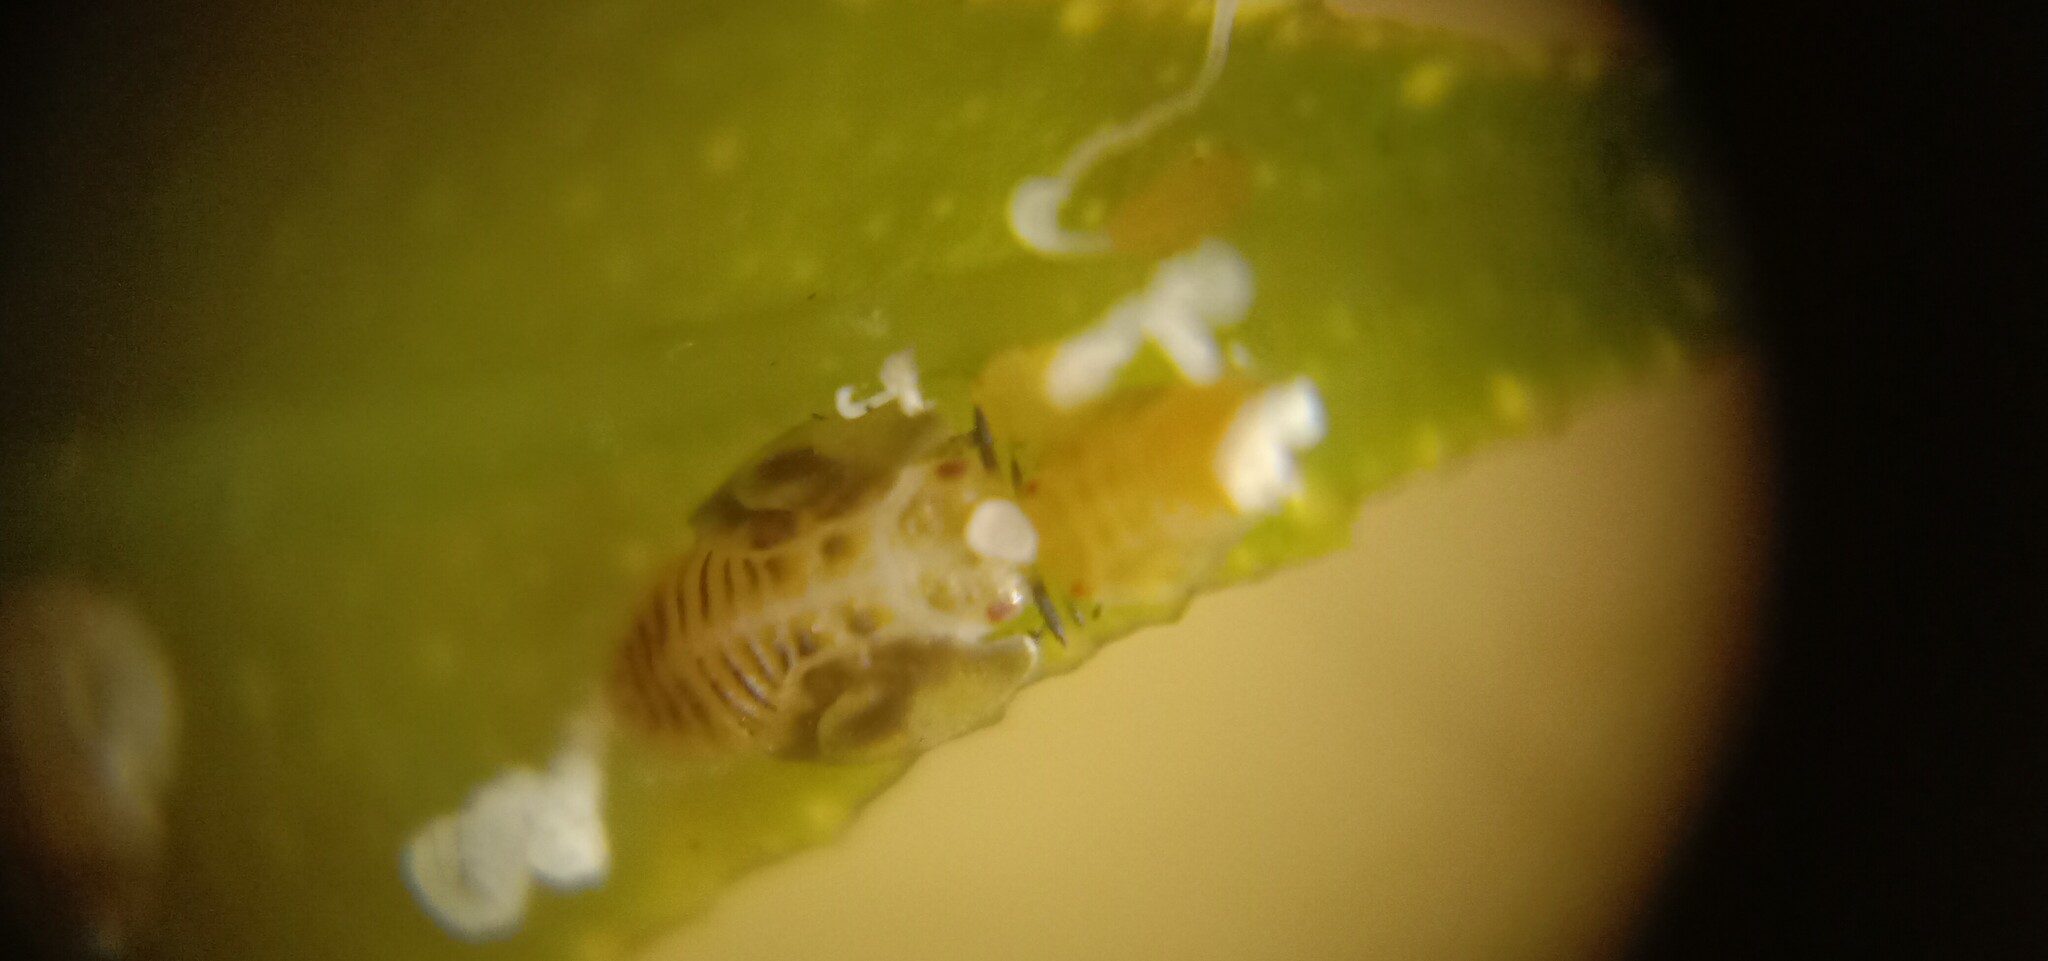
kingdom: Animalia
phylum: Arthropoda
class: Insecta
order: Hemiptera
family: Liviidae
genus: Diaphorina
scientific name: Diaphorina citri
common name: Asian citrus psyllid
